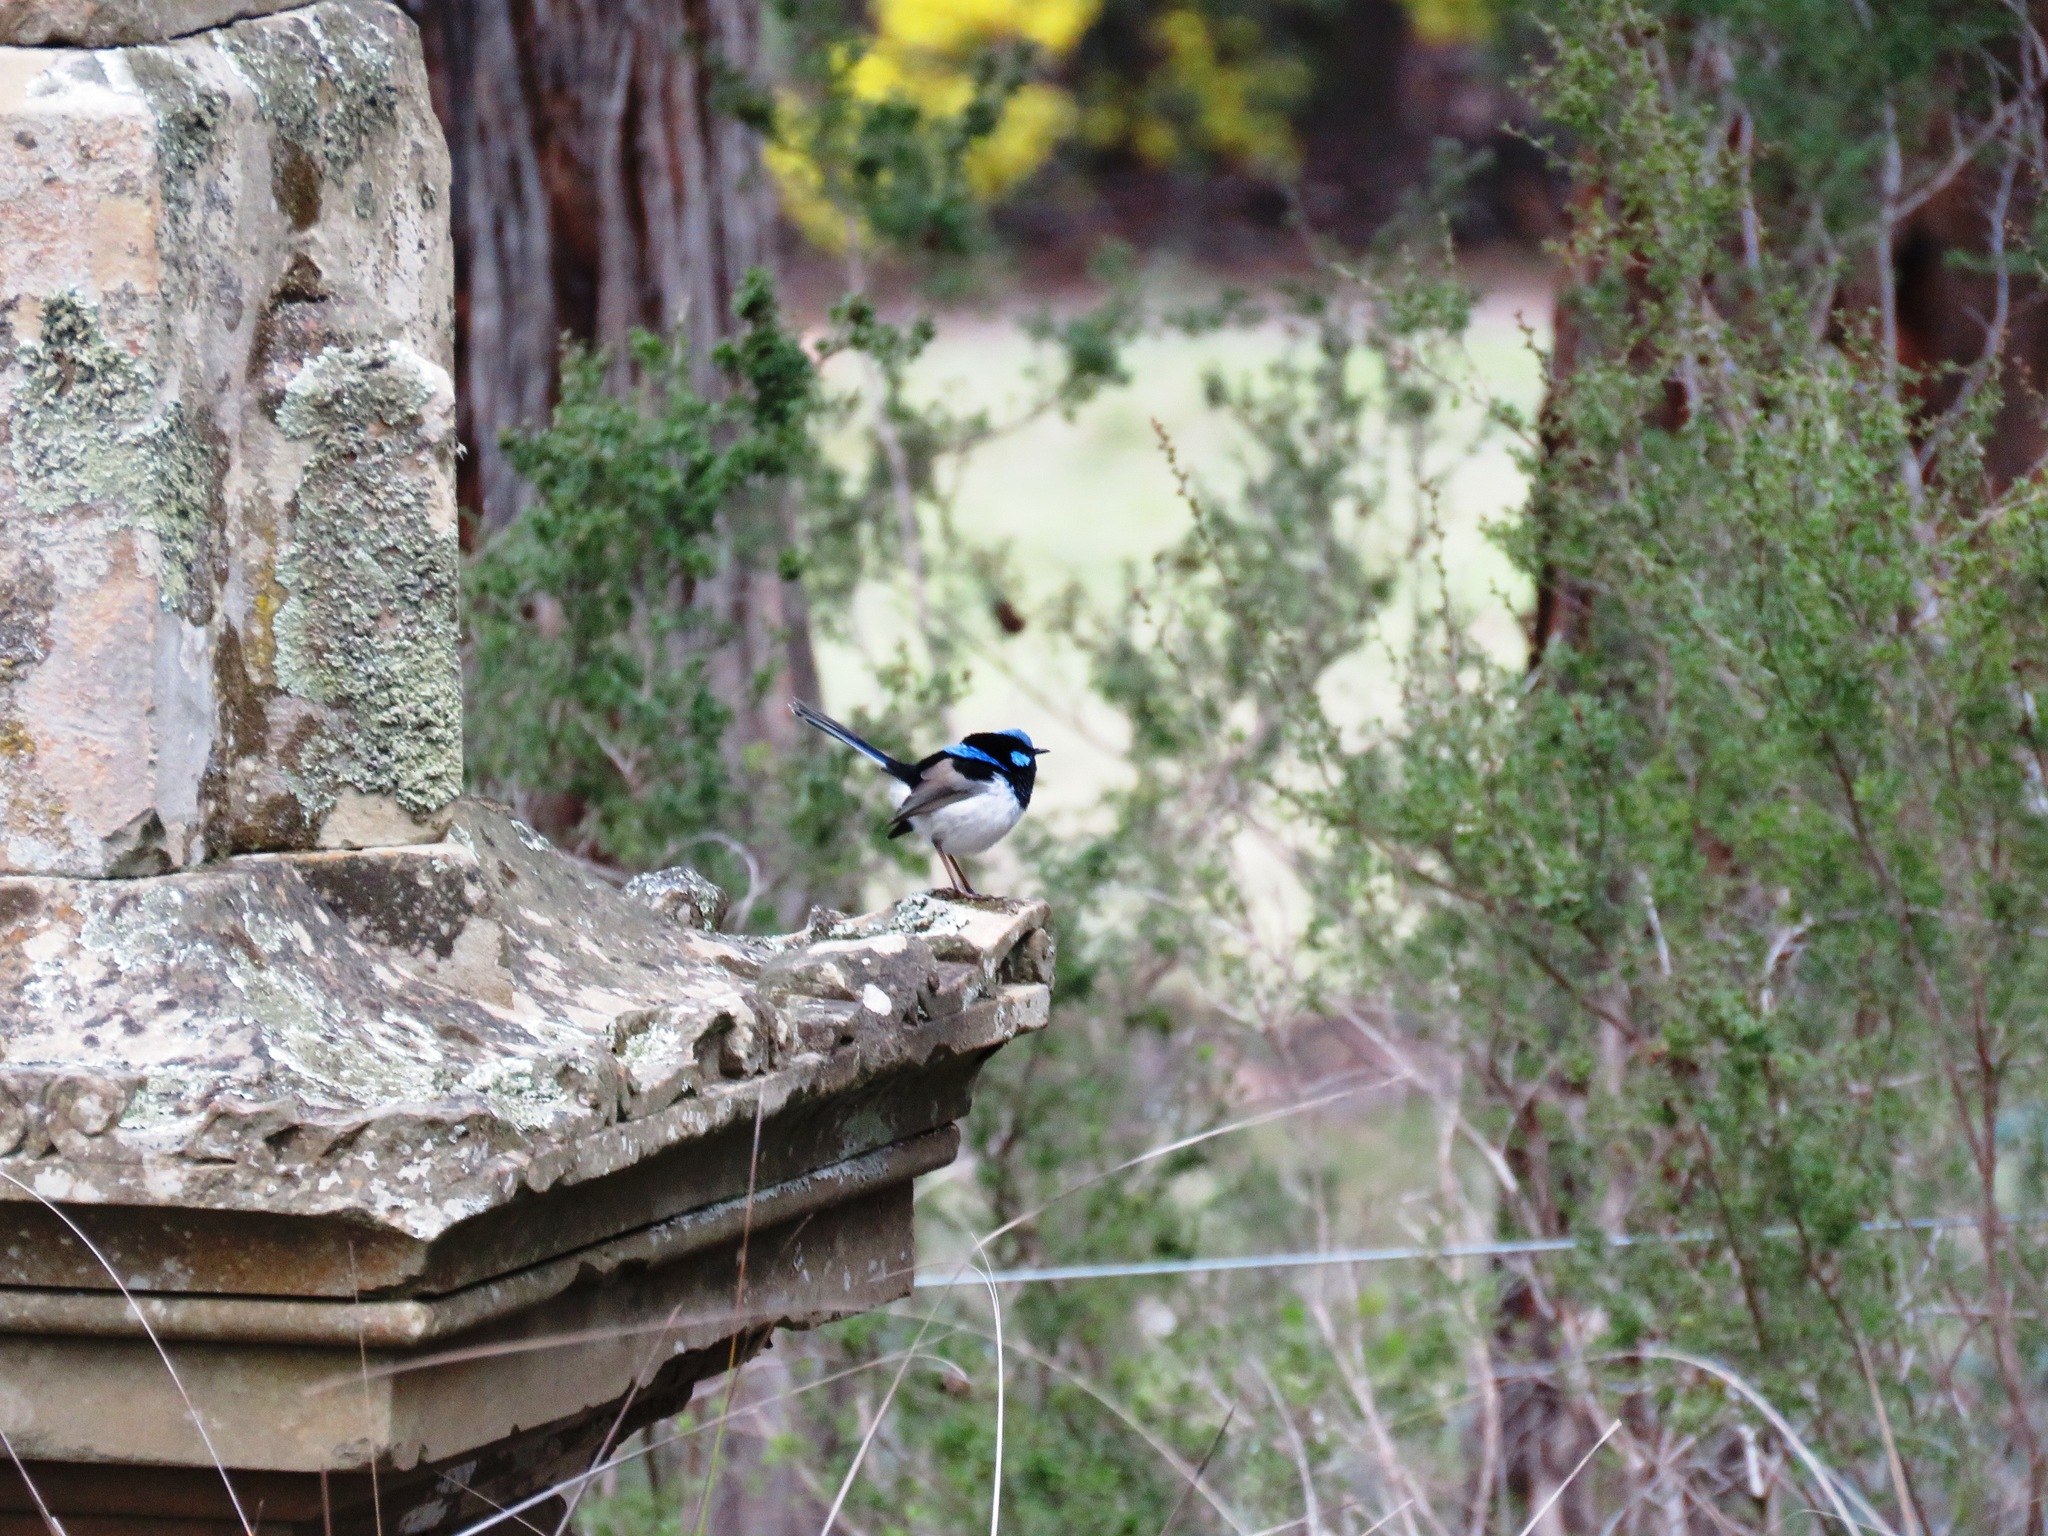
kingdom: Animalia
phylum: Chordata
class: Aves
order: Passeriformes
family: Maluridae
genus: Malurus
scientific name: Malurus cyaneus
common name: Superb fairywren
